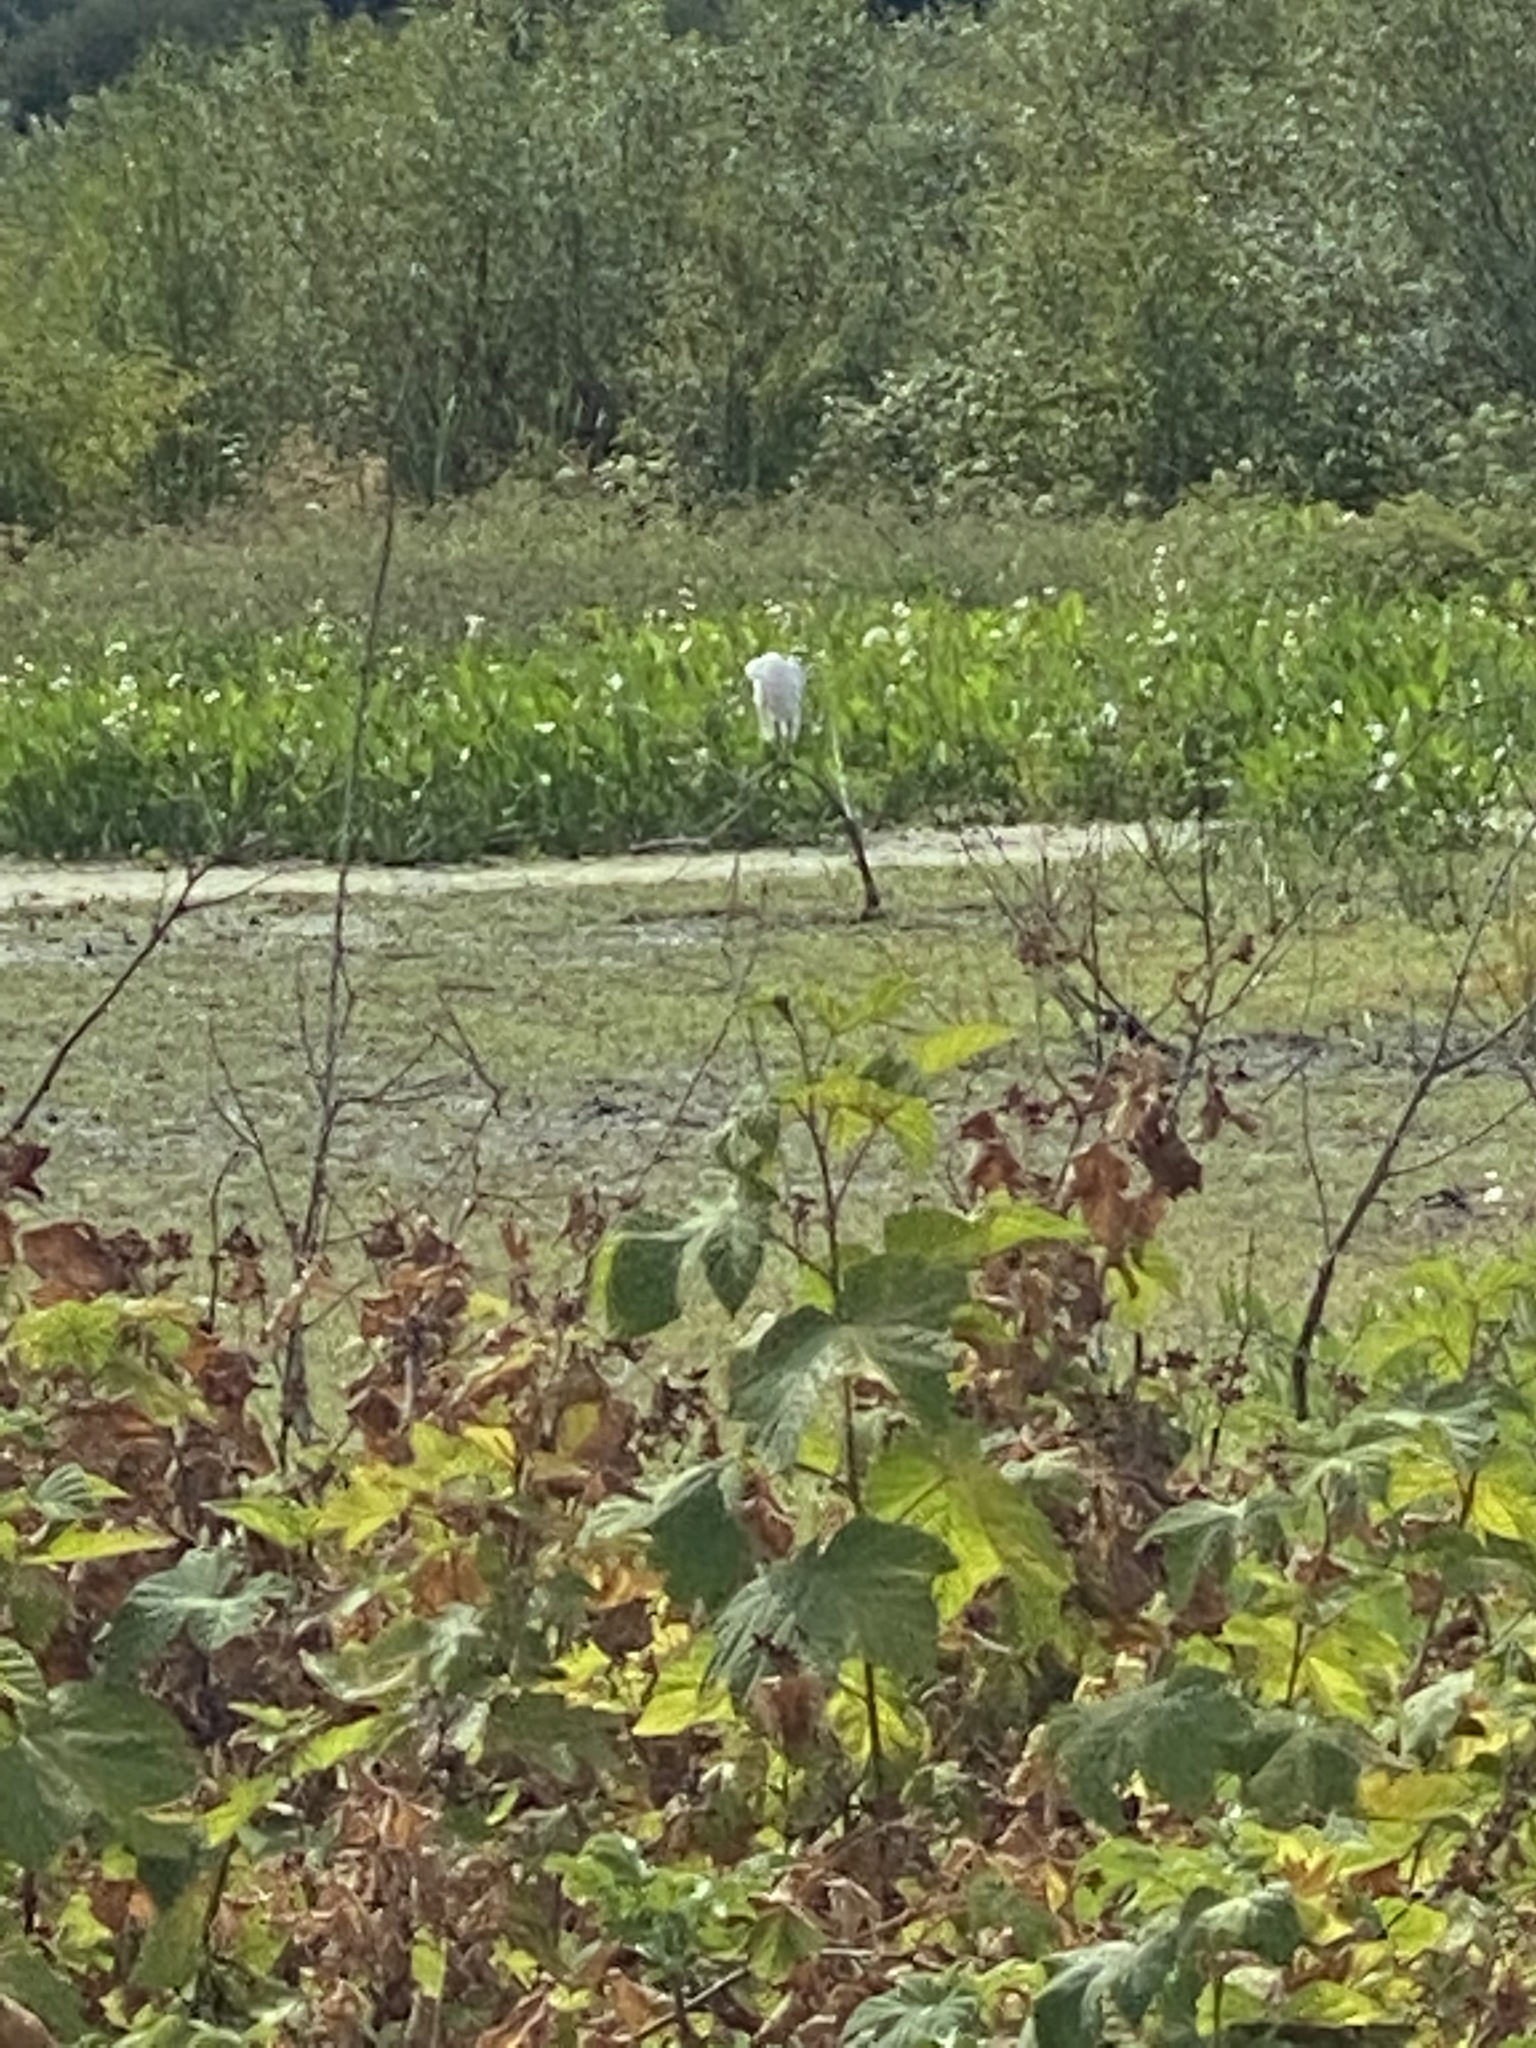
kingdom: Animalia
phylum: Chordata
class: Aves
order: Pelecaniformes
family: Ardeidae
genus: Ardea
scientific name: Ardea alba
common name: Great egret
